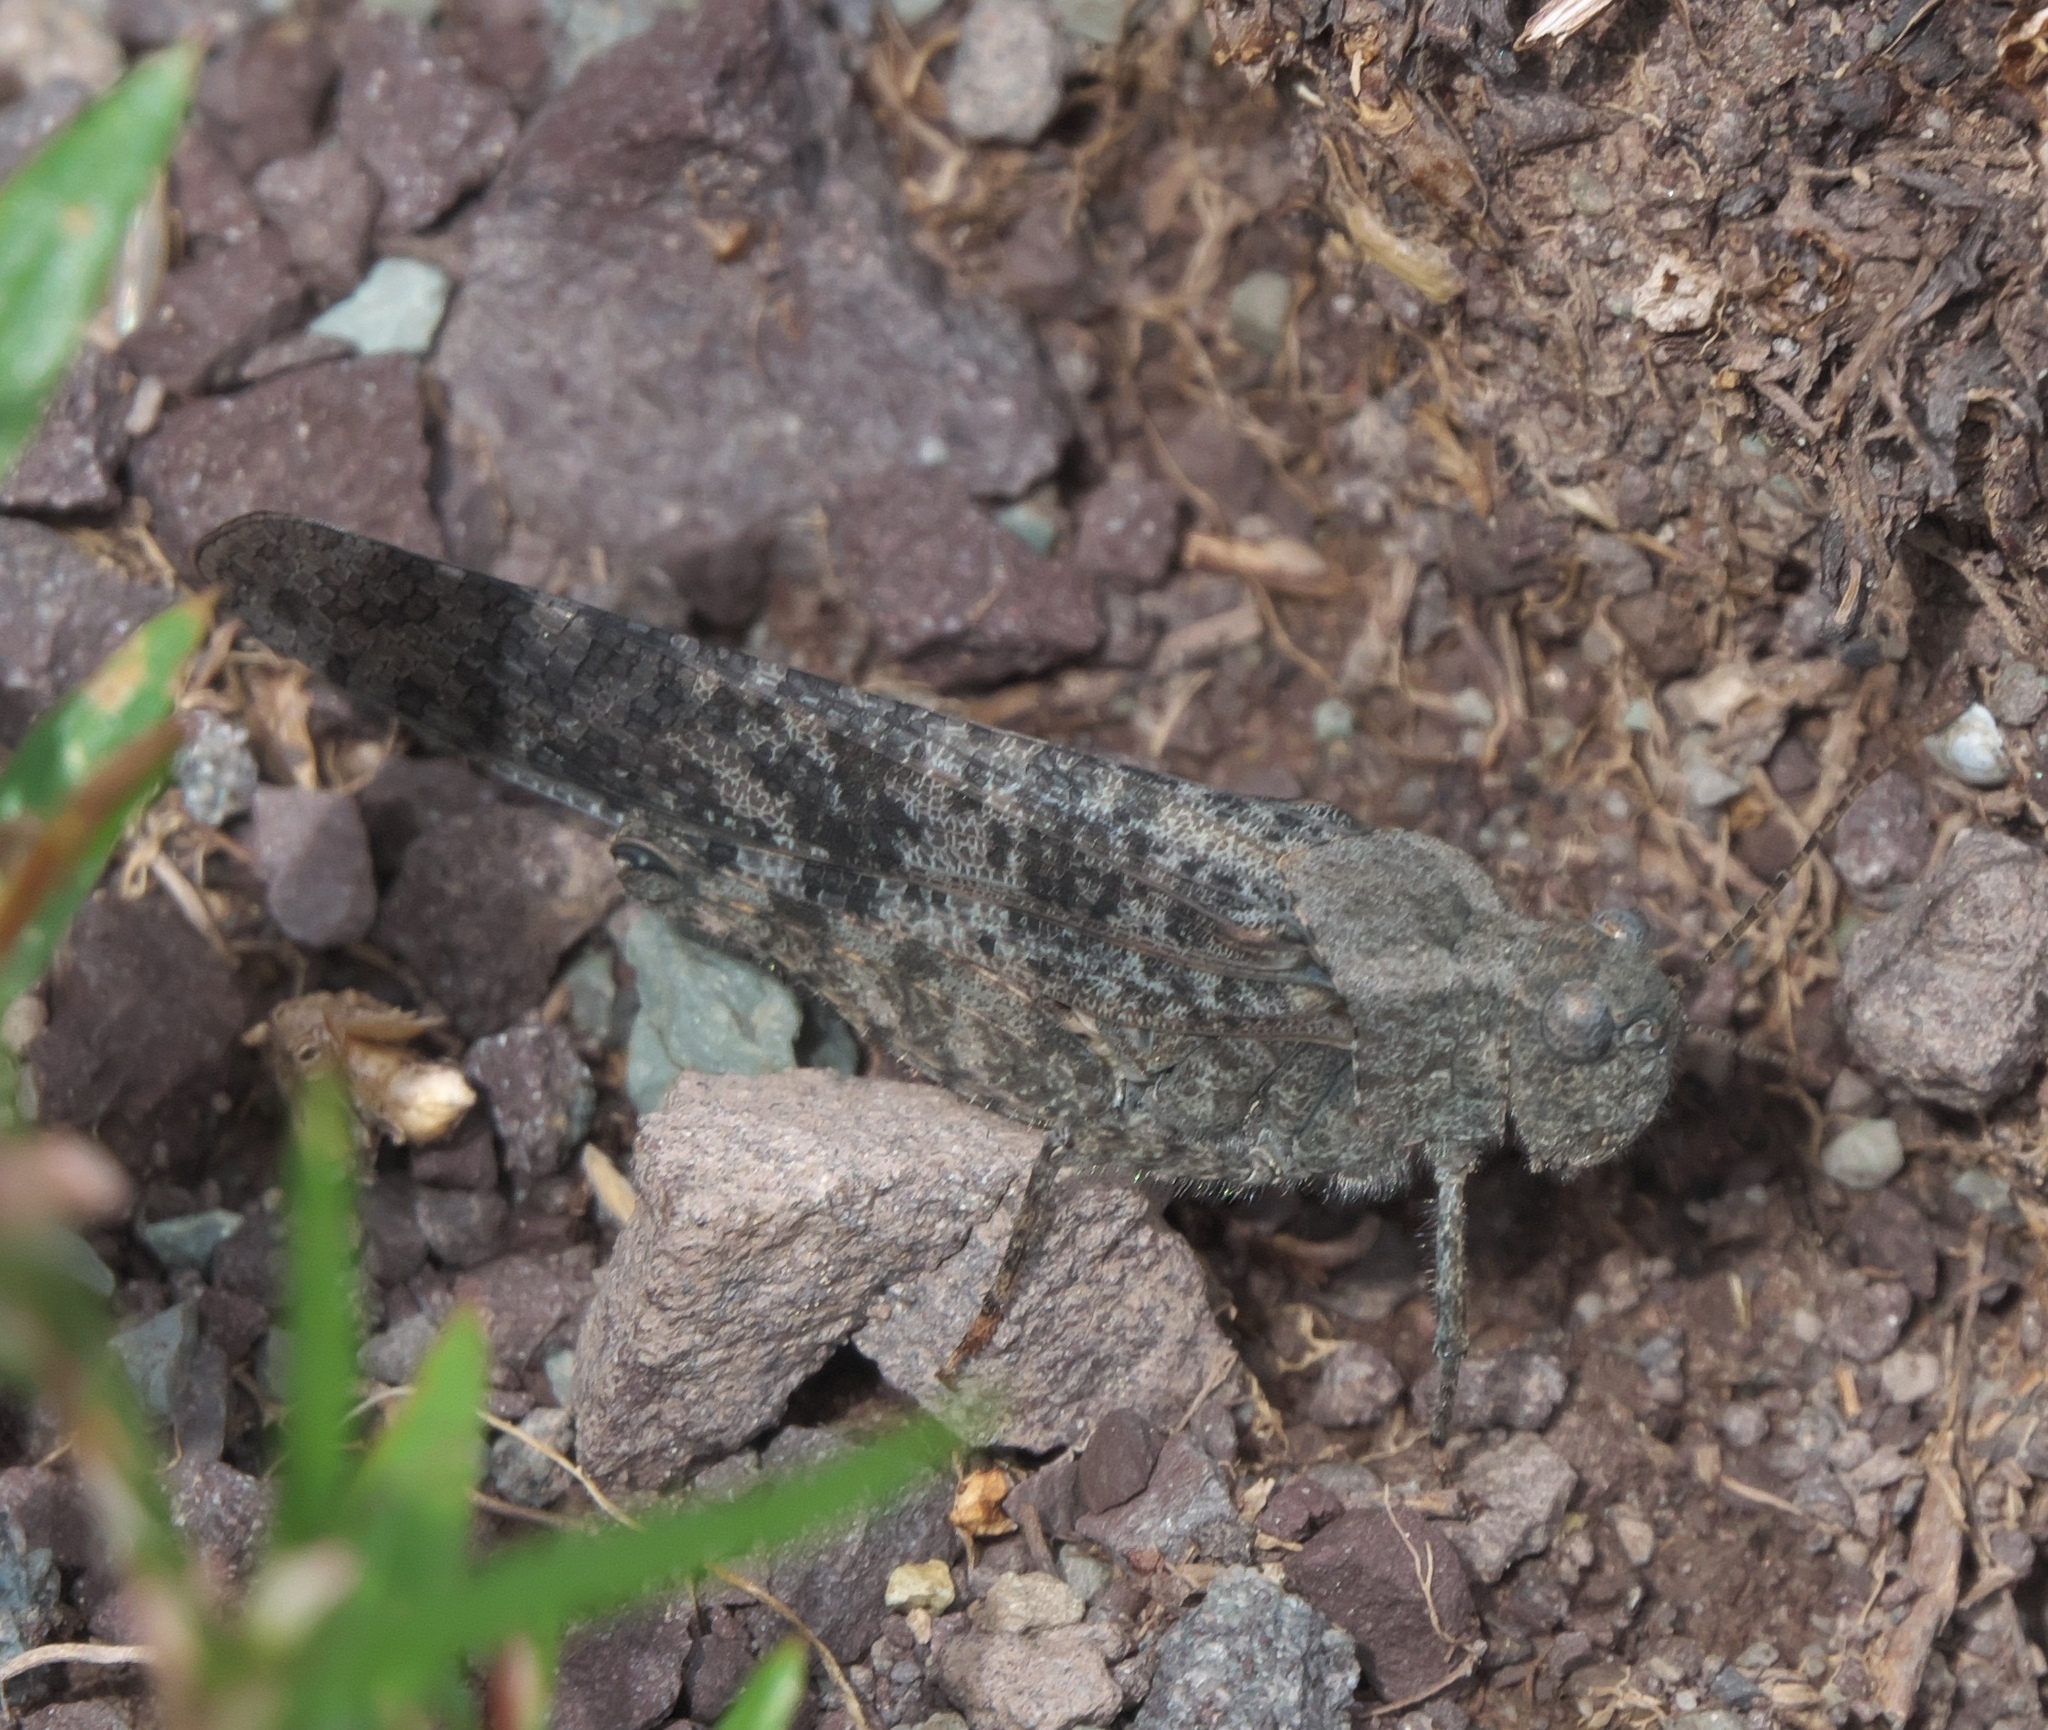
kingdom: Animalia
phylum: Arthropoda
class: Insecta
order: Orthoptera
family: Acrididae
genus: Trimerotropis
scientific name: Trimerotropis verruculata
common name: Crackling forest grasshopper
